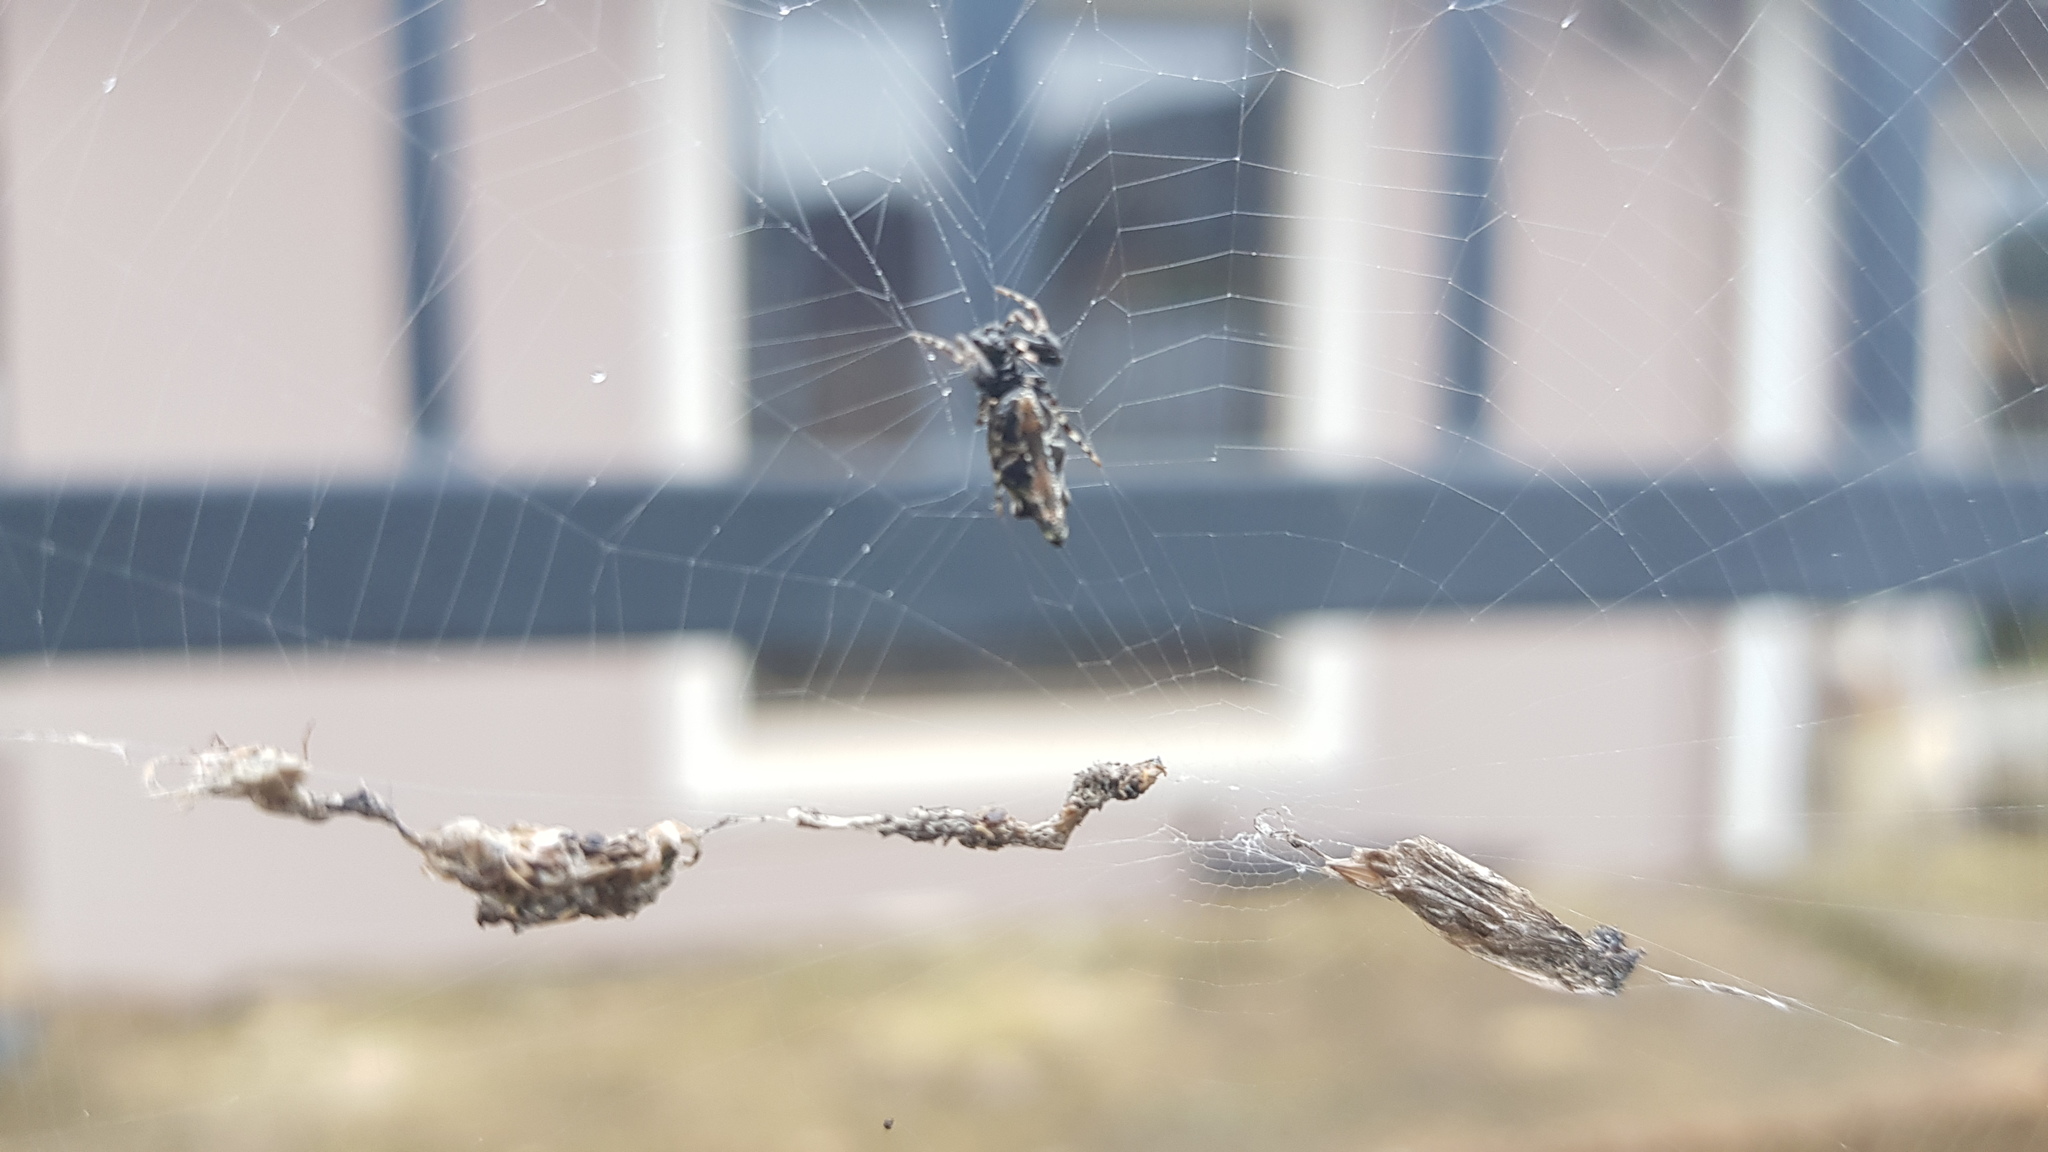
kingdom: Animalia
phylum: Arthropoda
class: Arachnida
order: Araneae
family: Araneidae
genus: Cyclosa
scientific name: Cyclosa insulana
